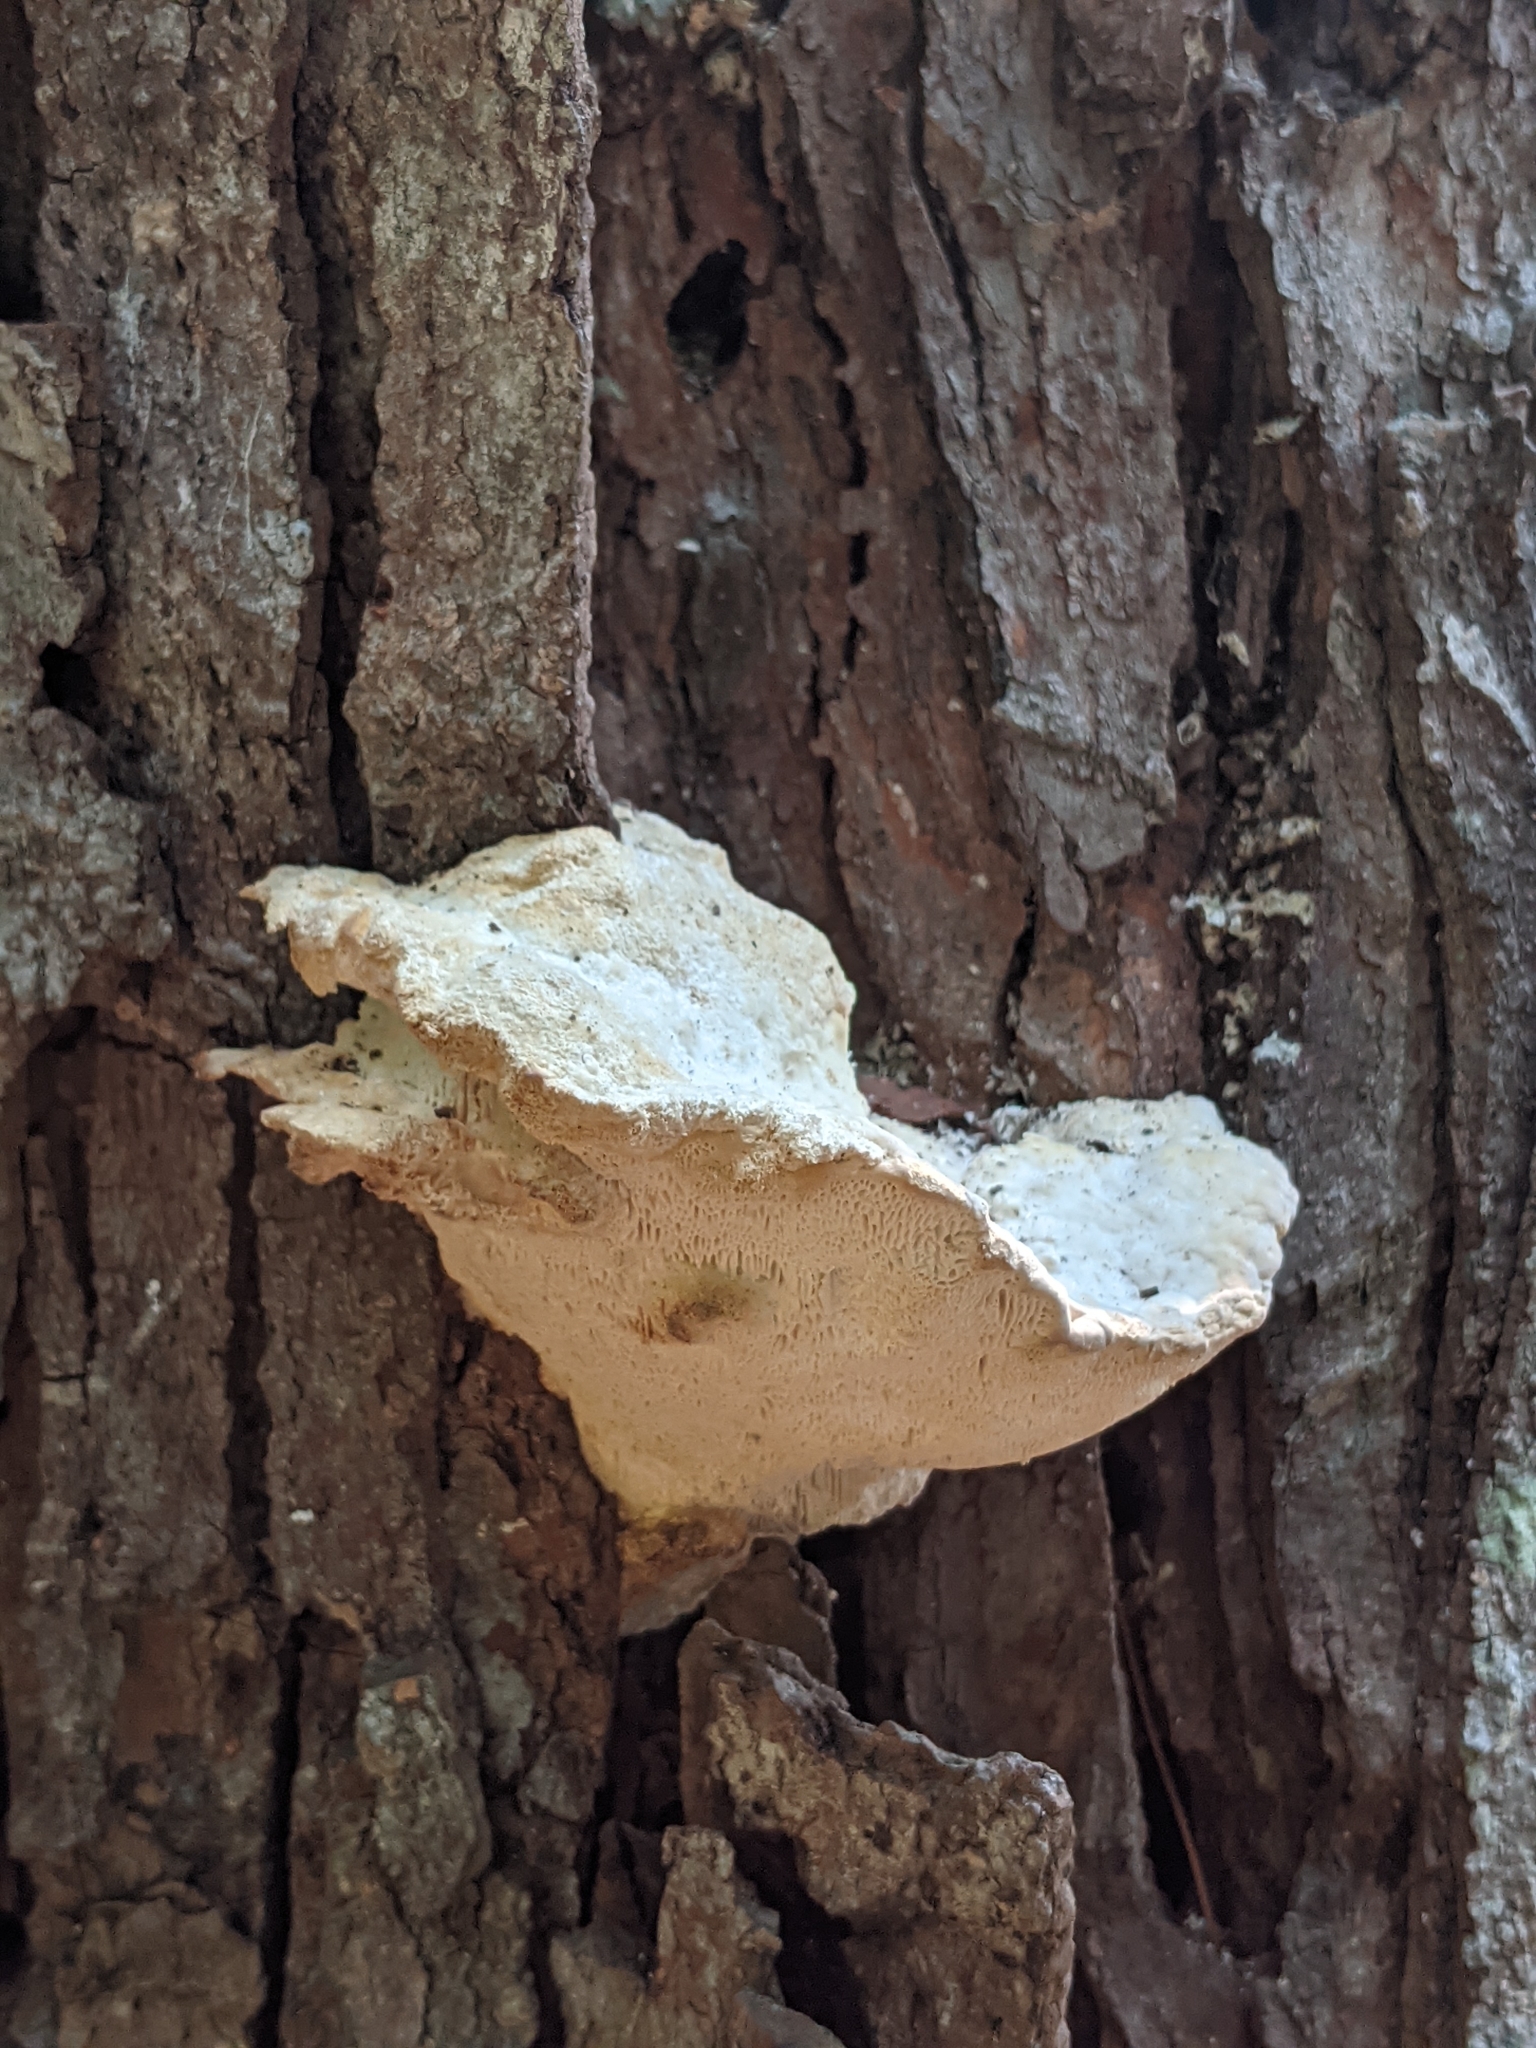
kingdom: Fungi
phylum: Basidiomycota
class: Agaricomycetes
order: Polyporales
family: Polyporaceae
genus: Trametes
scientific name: Trametes gibbosa
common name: Lumpy bracket
